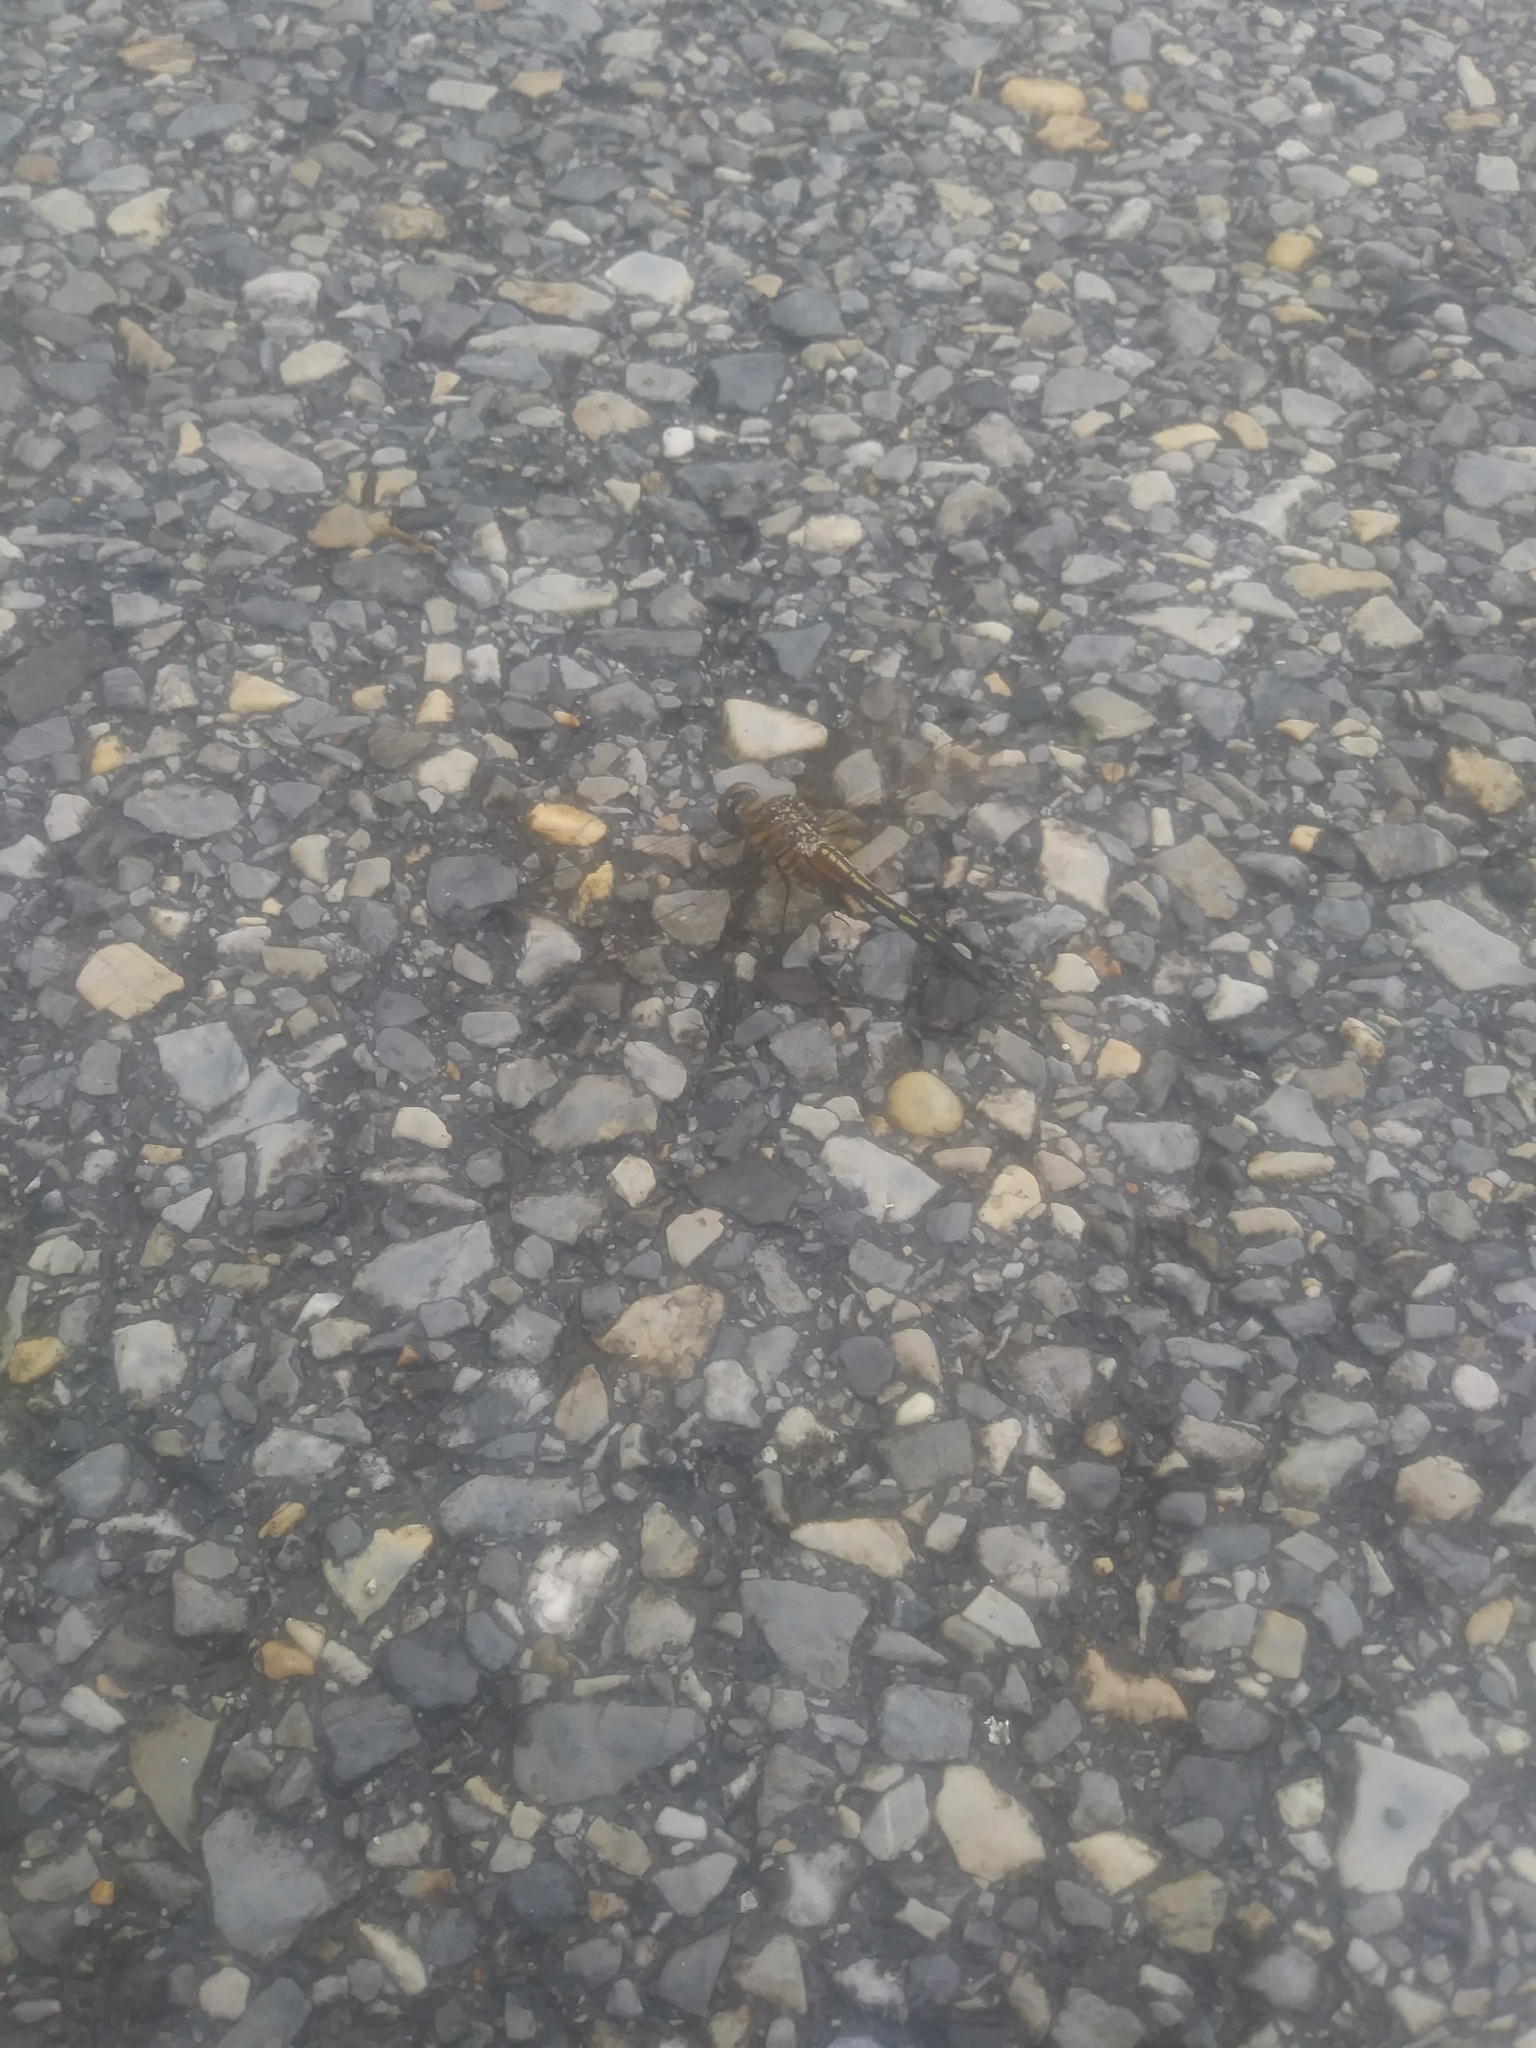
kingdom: Animalia
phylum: Arthropoda
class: Insecta
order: Odonata
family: Libellulidae
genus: Pachydiplax
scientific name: Pachydiplax longipennis
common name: Blue dasher
